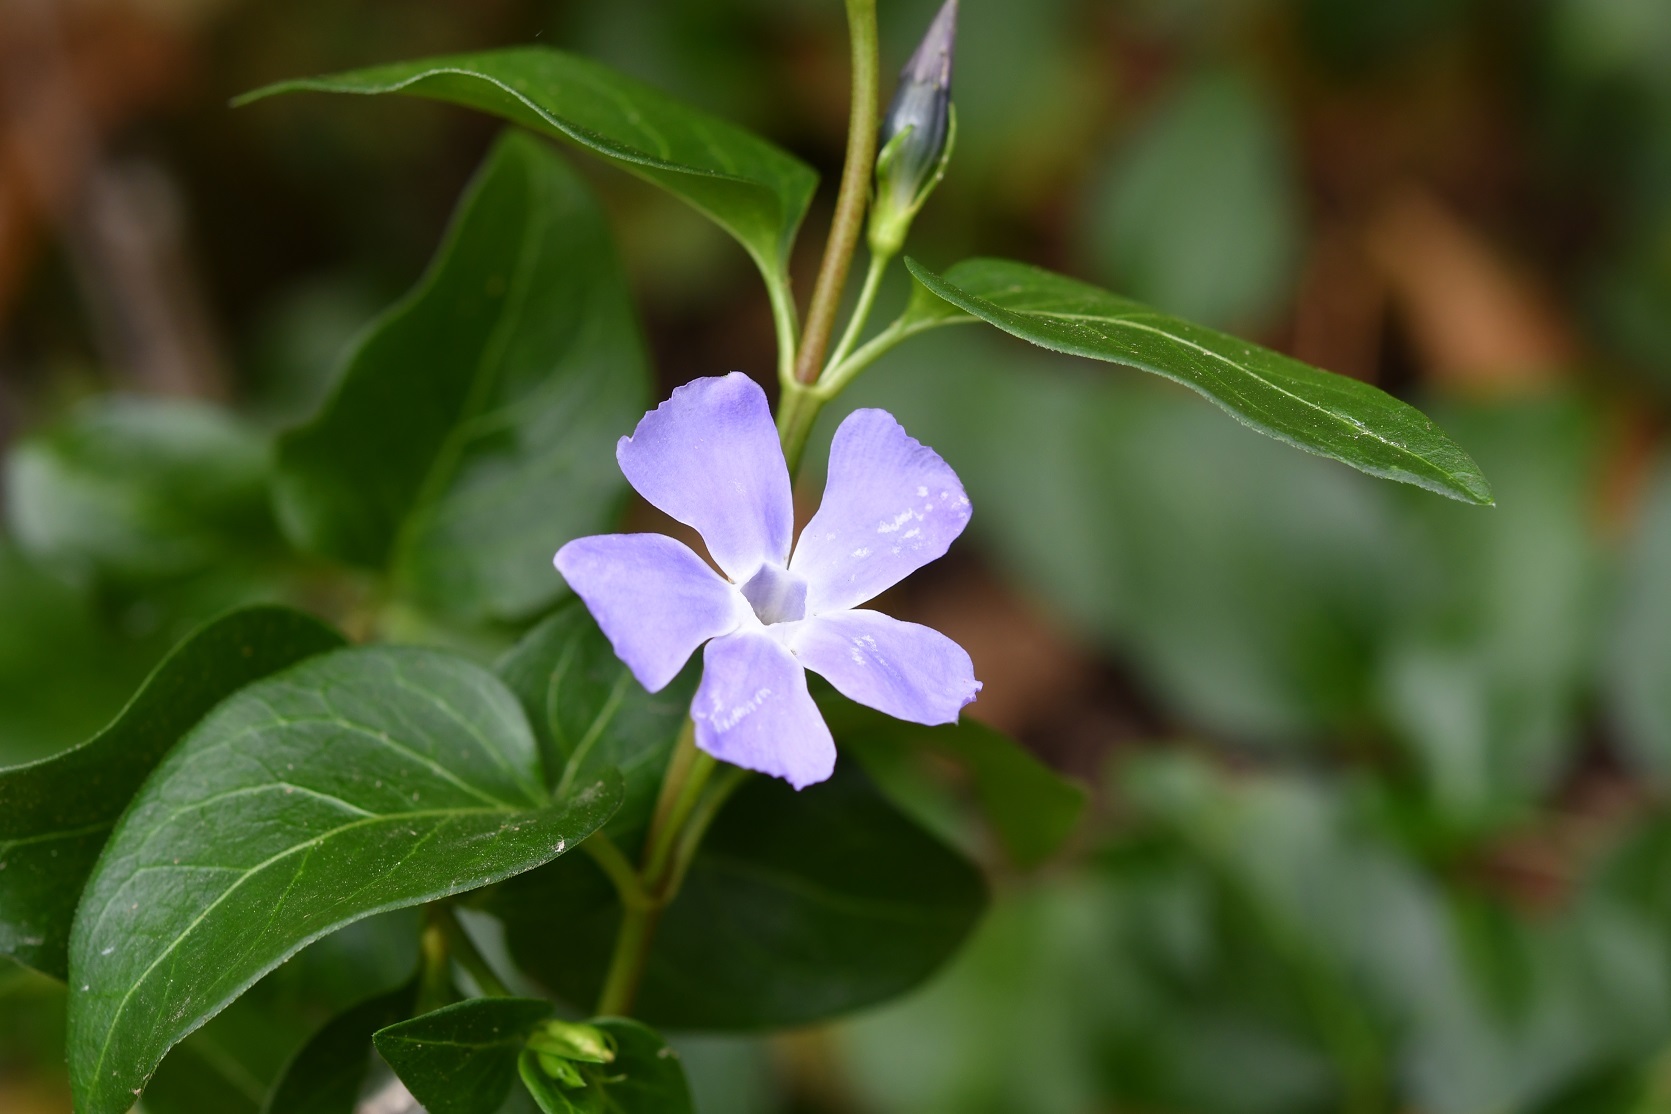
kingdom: Plantae
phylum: Tracheophyta
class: Magnoliopsida
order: Gentianales
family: Apocynaceae
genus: Vinca
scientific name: Vinca major
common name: Greater periwinkle
